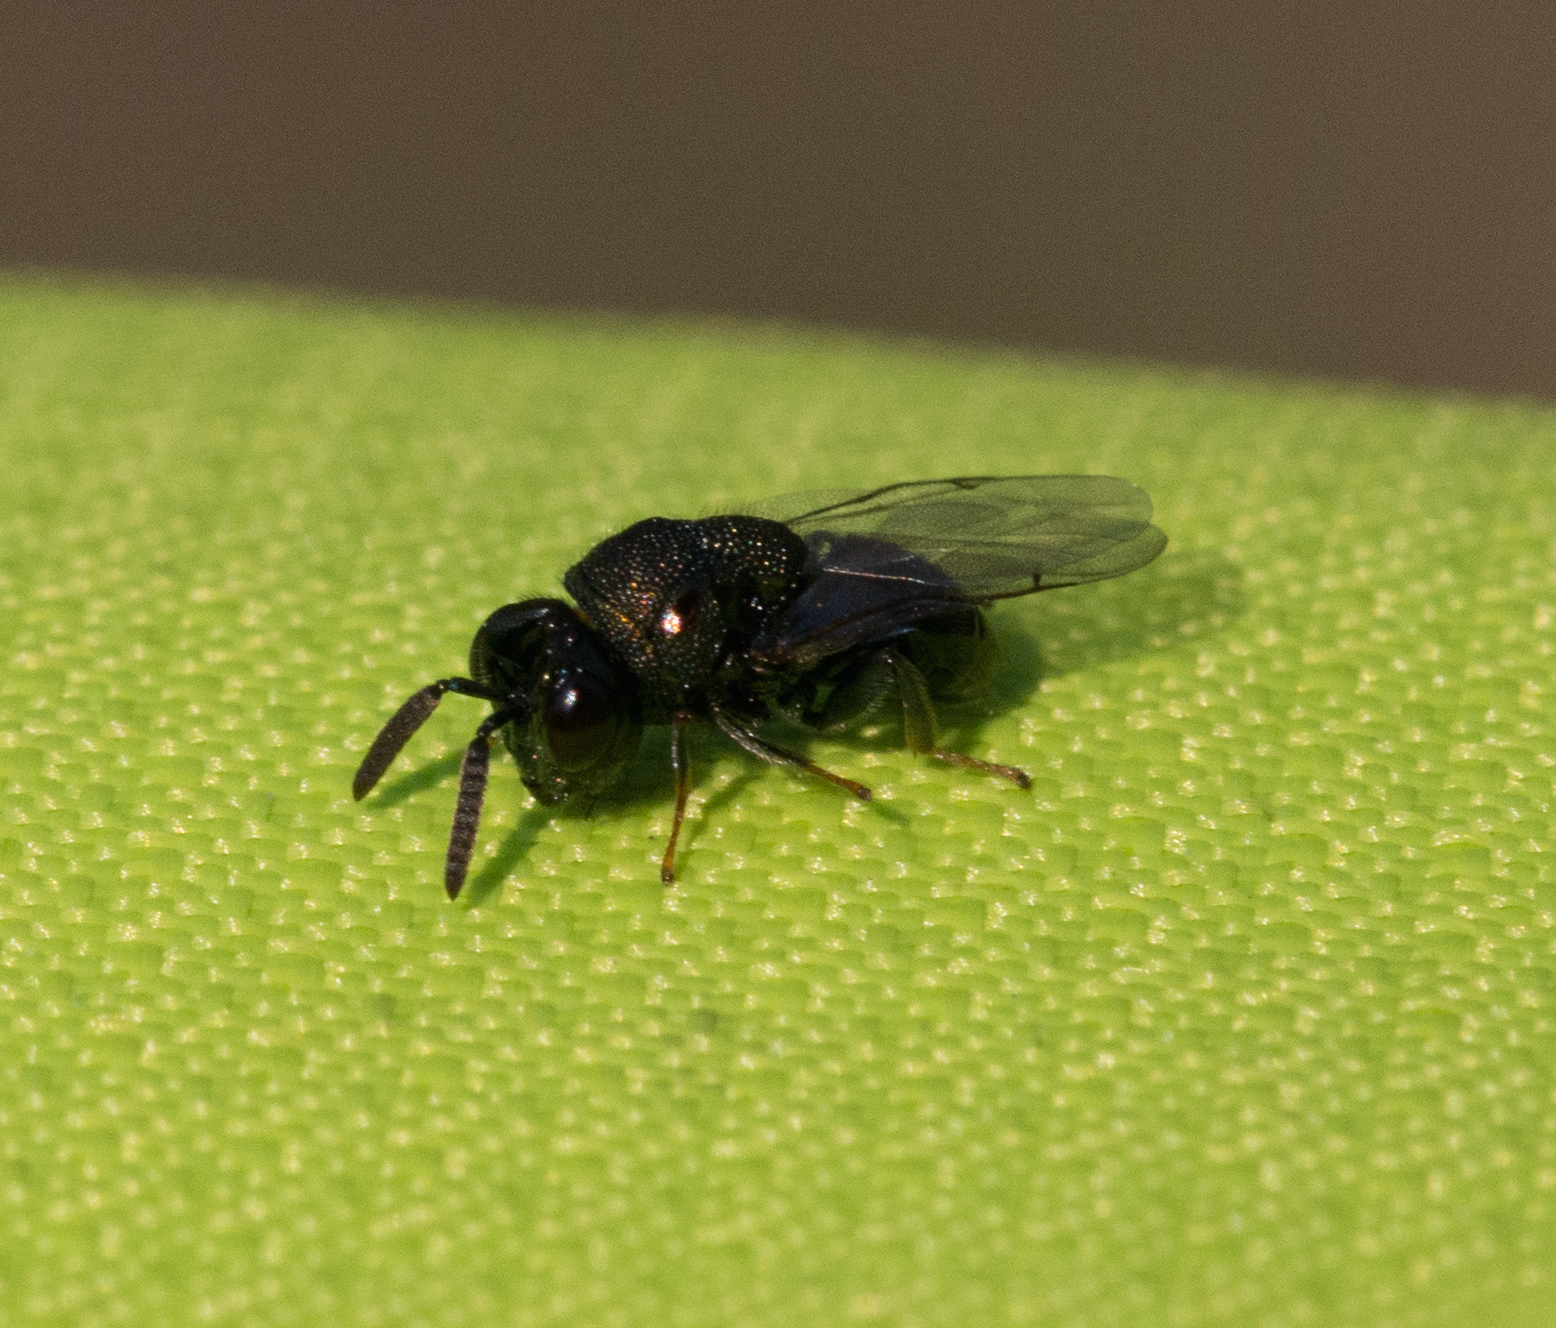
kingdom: Animalia
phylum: Arthropoda
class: Insecta
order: Hymenoptera
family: Perilampidae
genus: Perilampus
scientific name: Perilampus
